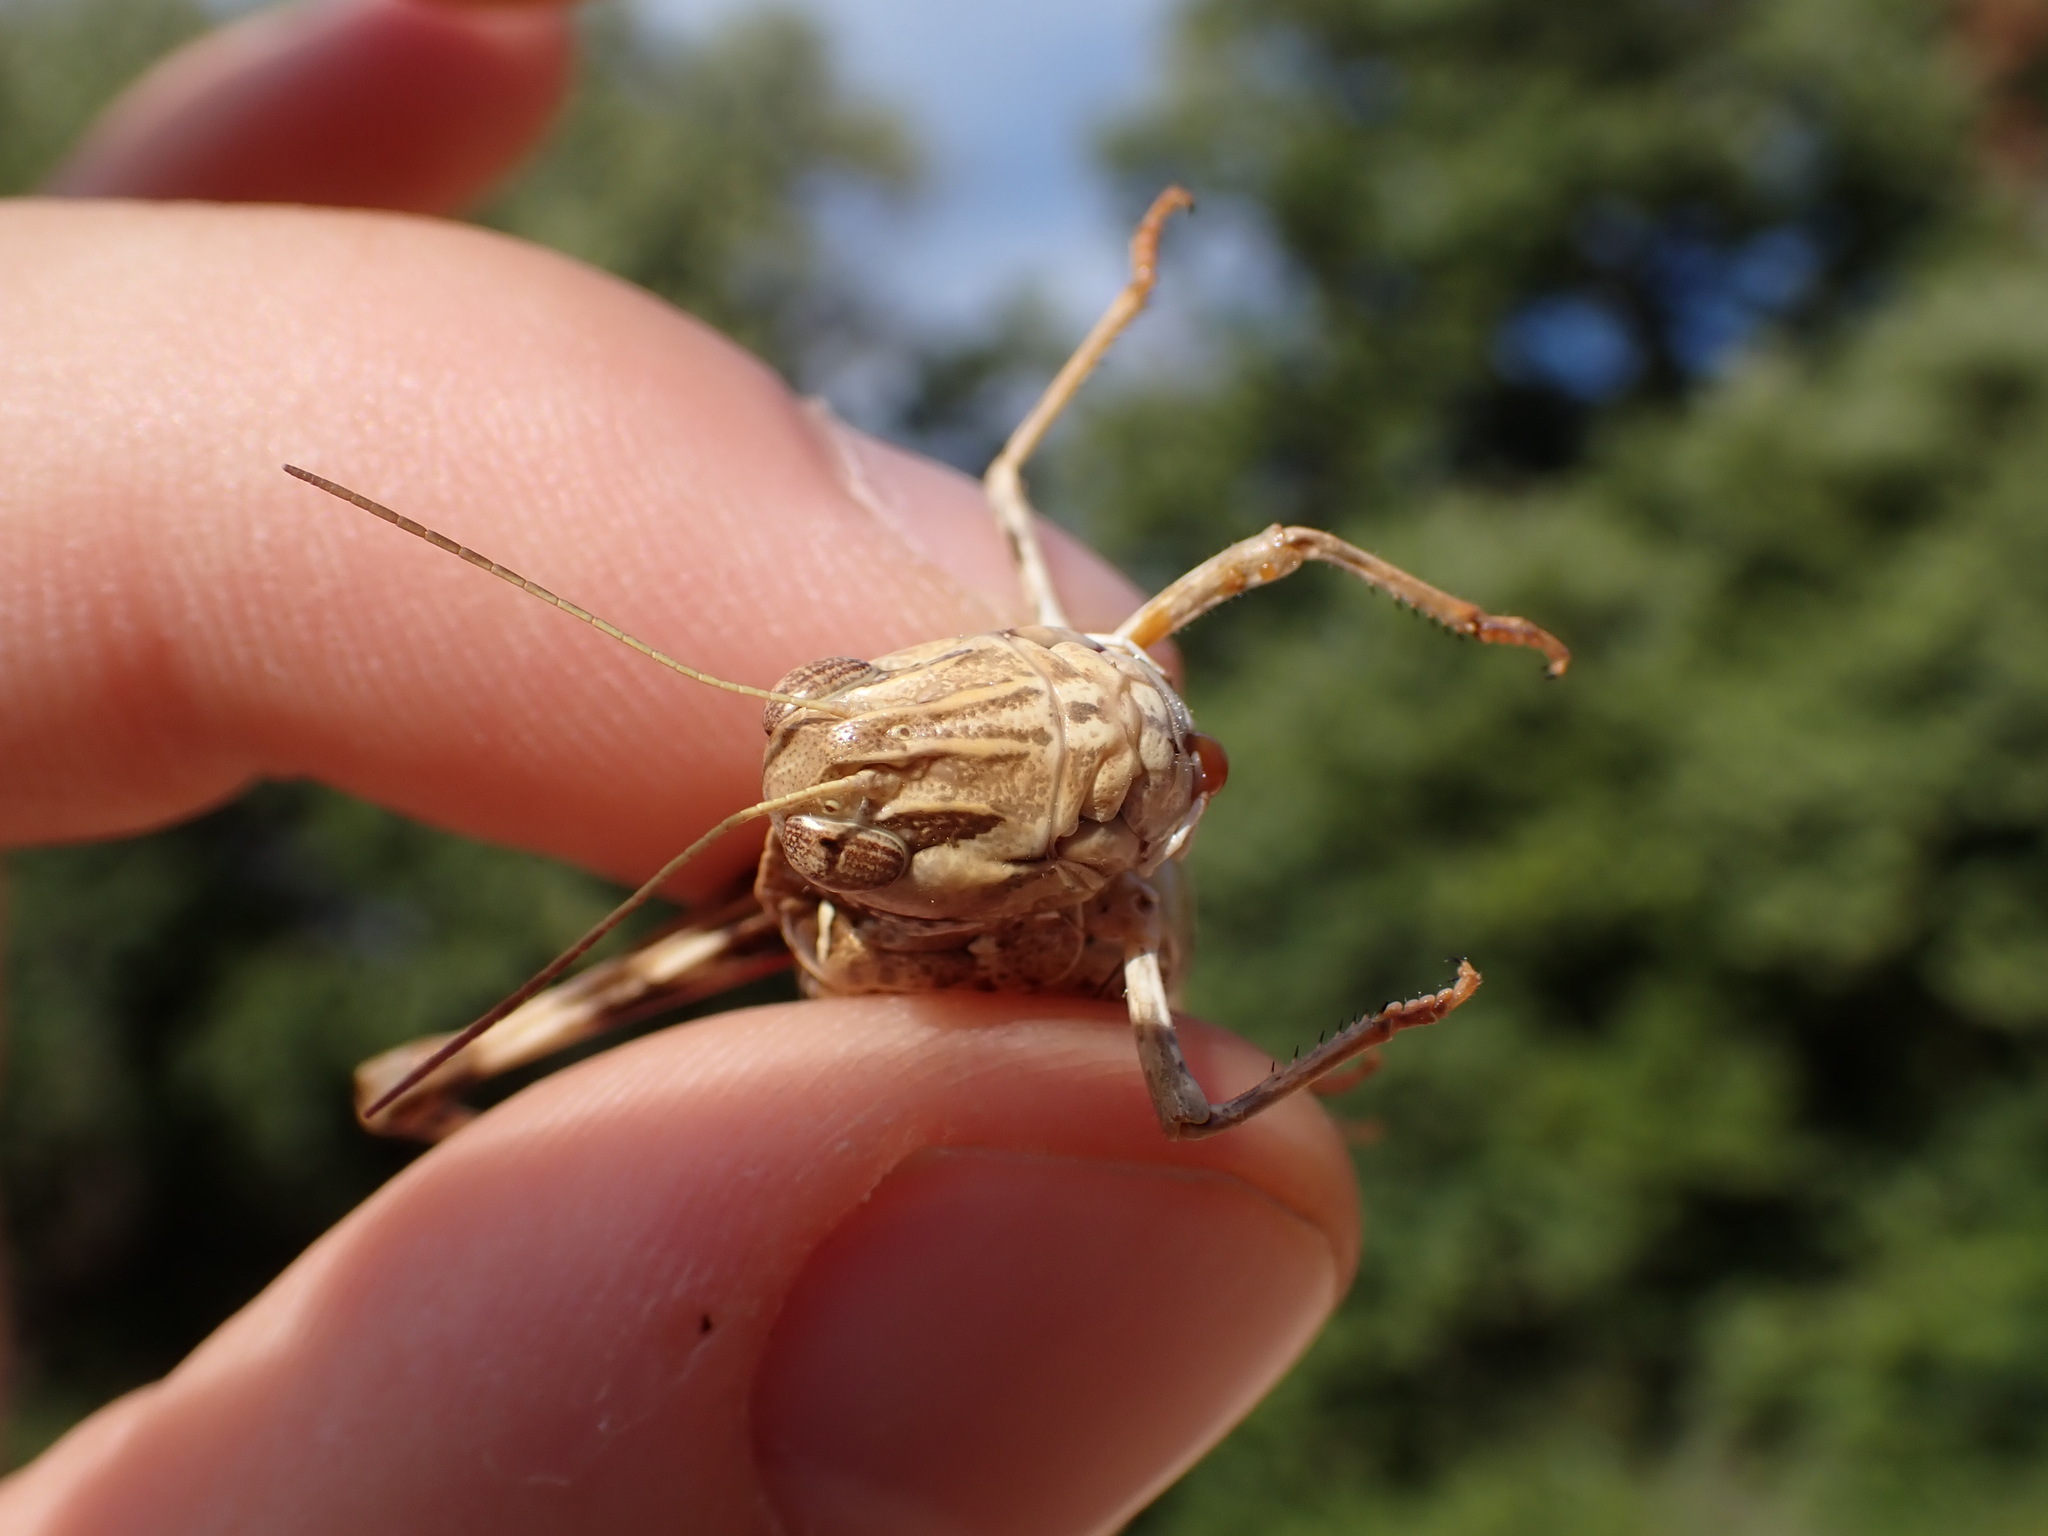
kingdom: Animalia
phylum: Arthropoda
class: Insecta
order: Orthoptera
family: Acrididae
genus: Oedaleus
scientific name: Oedaleus decorus
